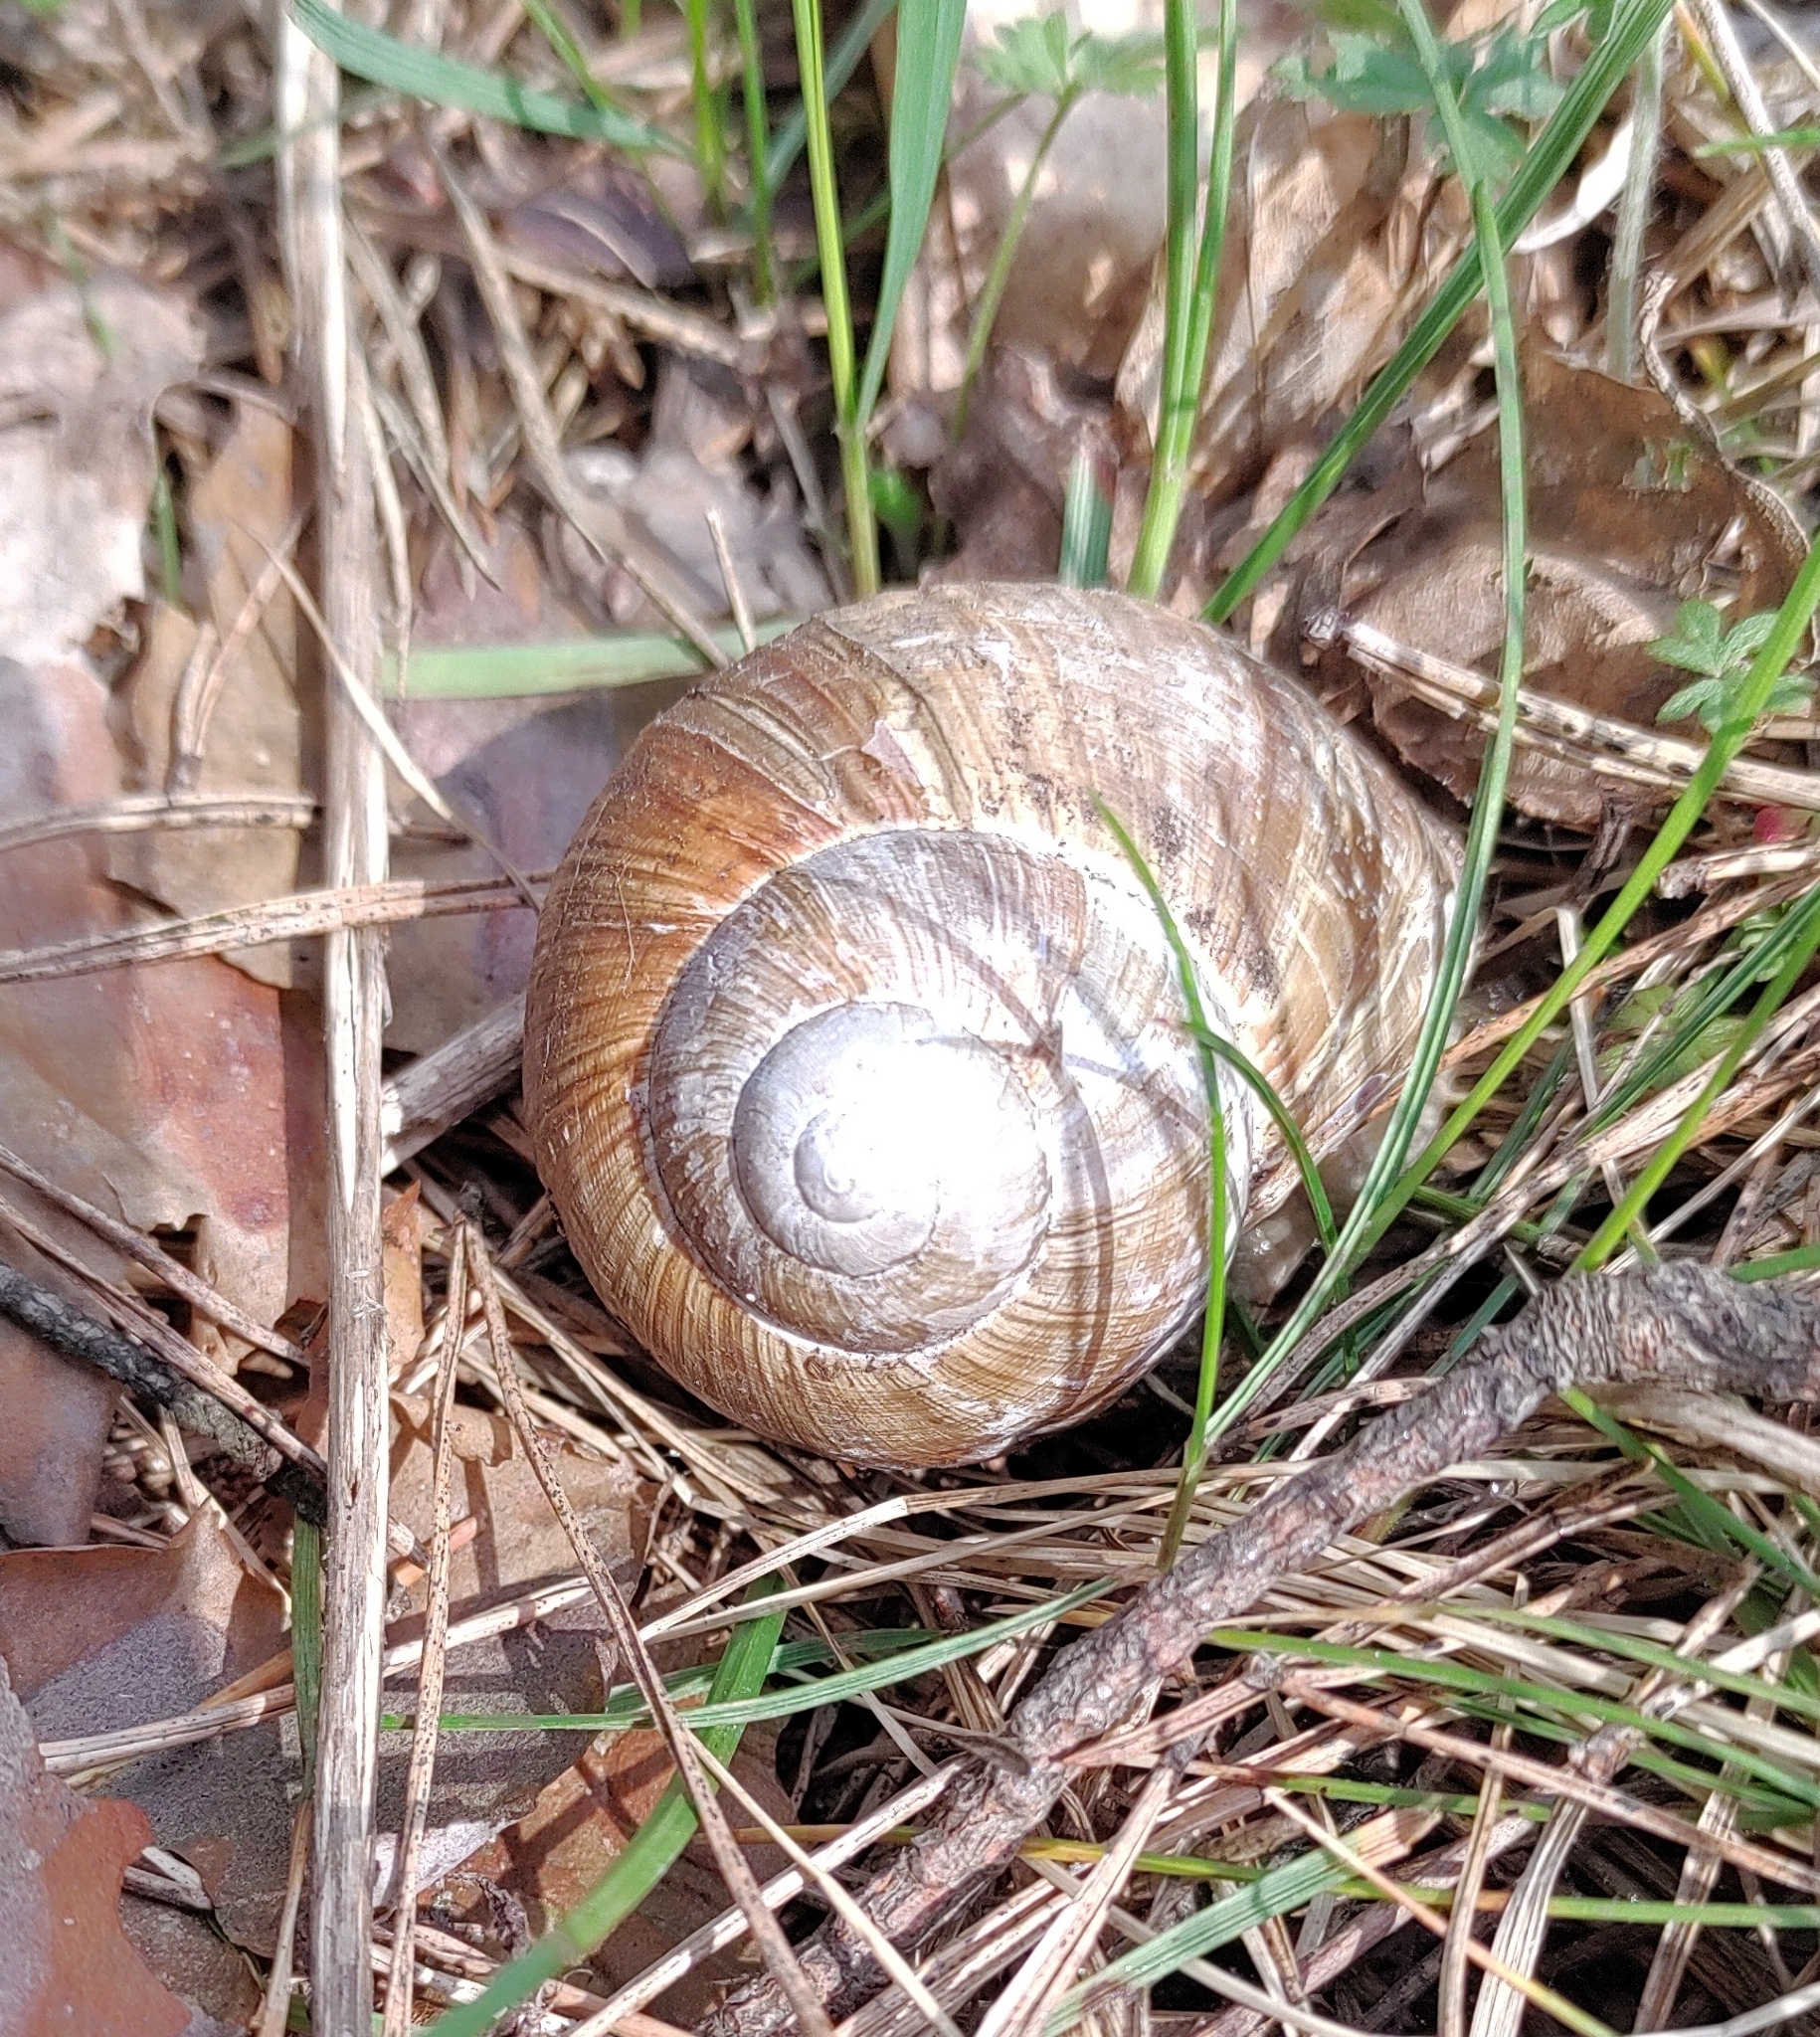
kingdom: Animalia
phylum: Mollusca
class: Gastropoda
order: Stylommatophora
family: Helicidae
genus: Helix
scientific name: Helix pomatia
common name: Roman snail
